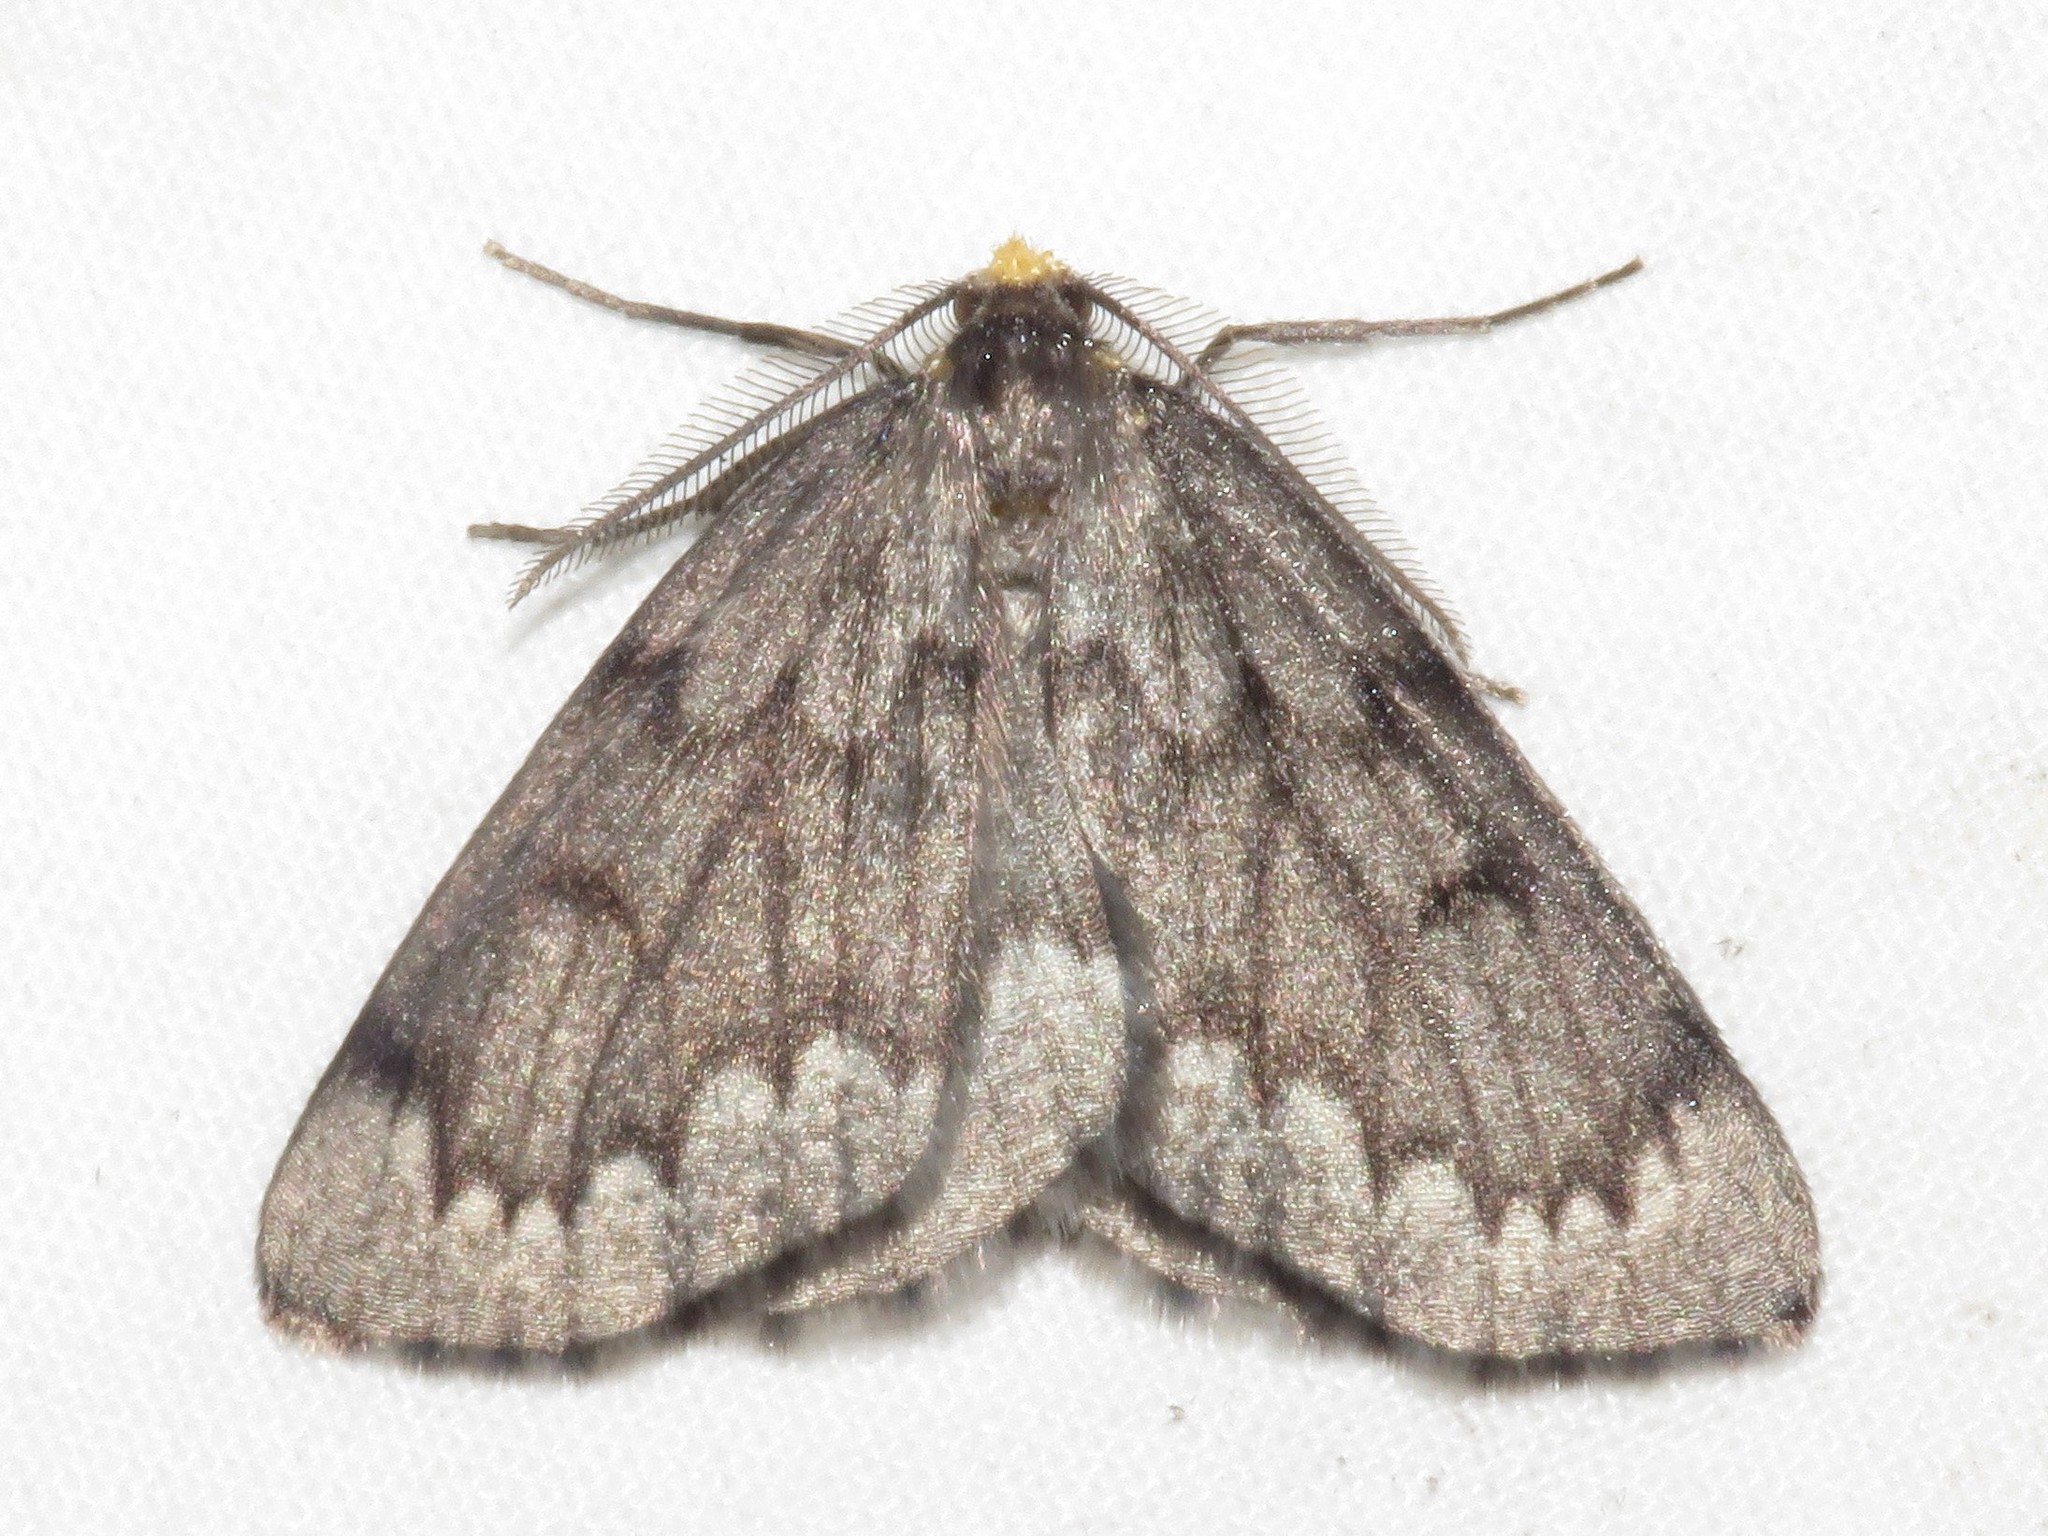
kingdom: Animalia
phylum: Arthropoda
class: Insecta
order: Lepidoptera
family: Geometridae
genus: Nepytia
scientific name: Nepytia canosaria
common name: False hemlock looper
